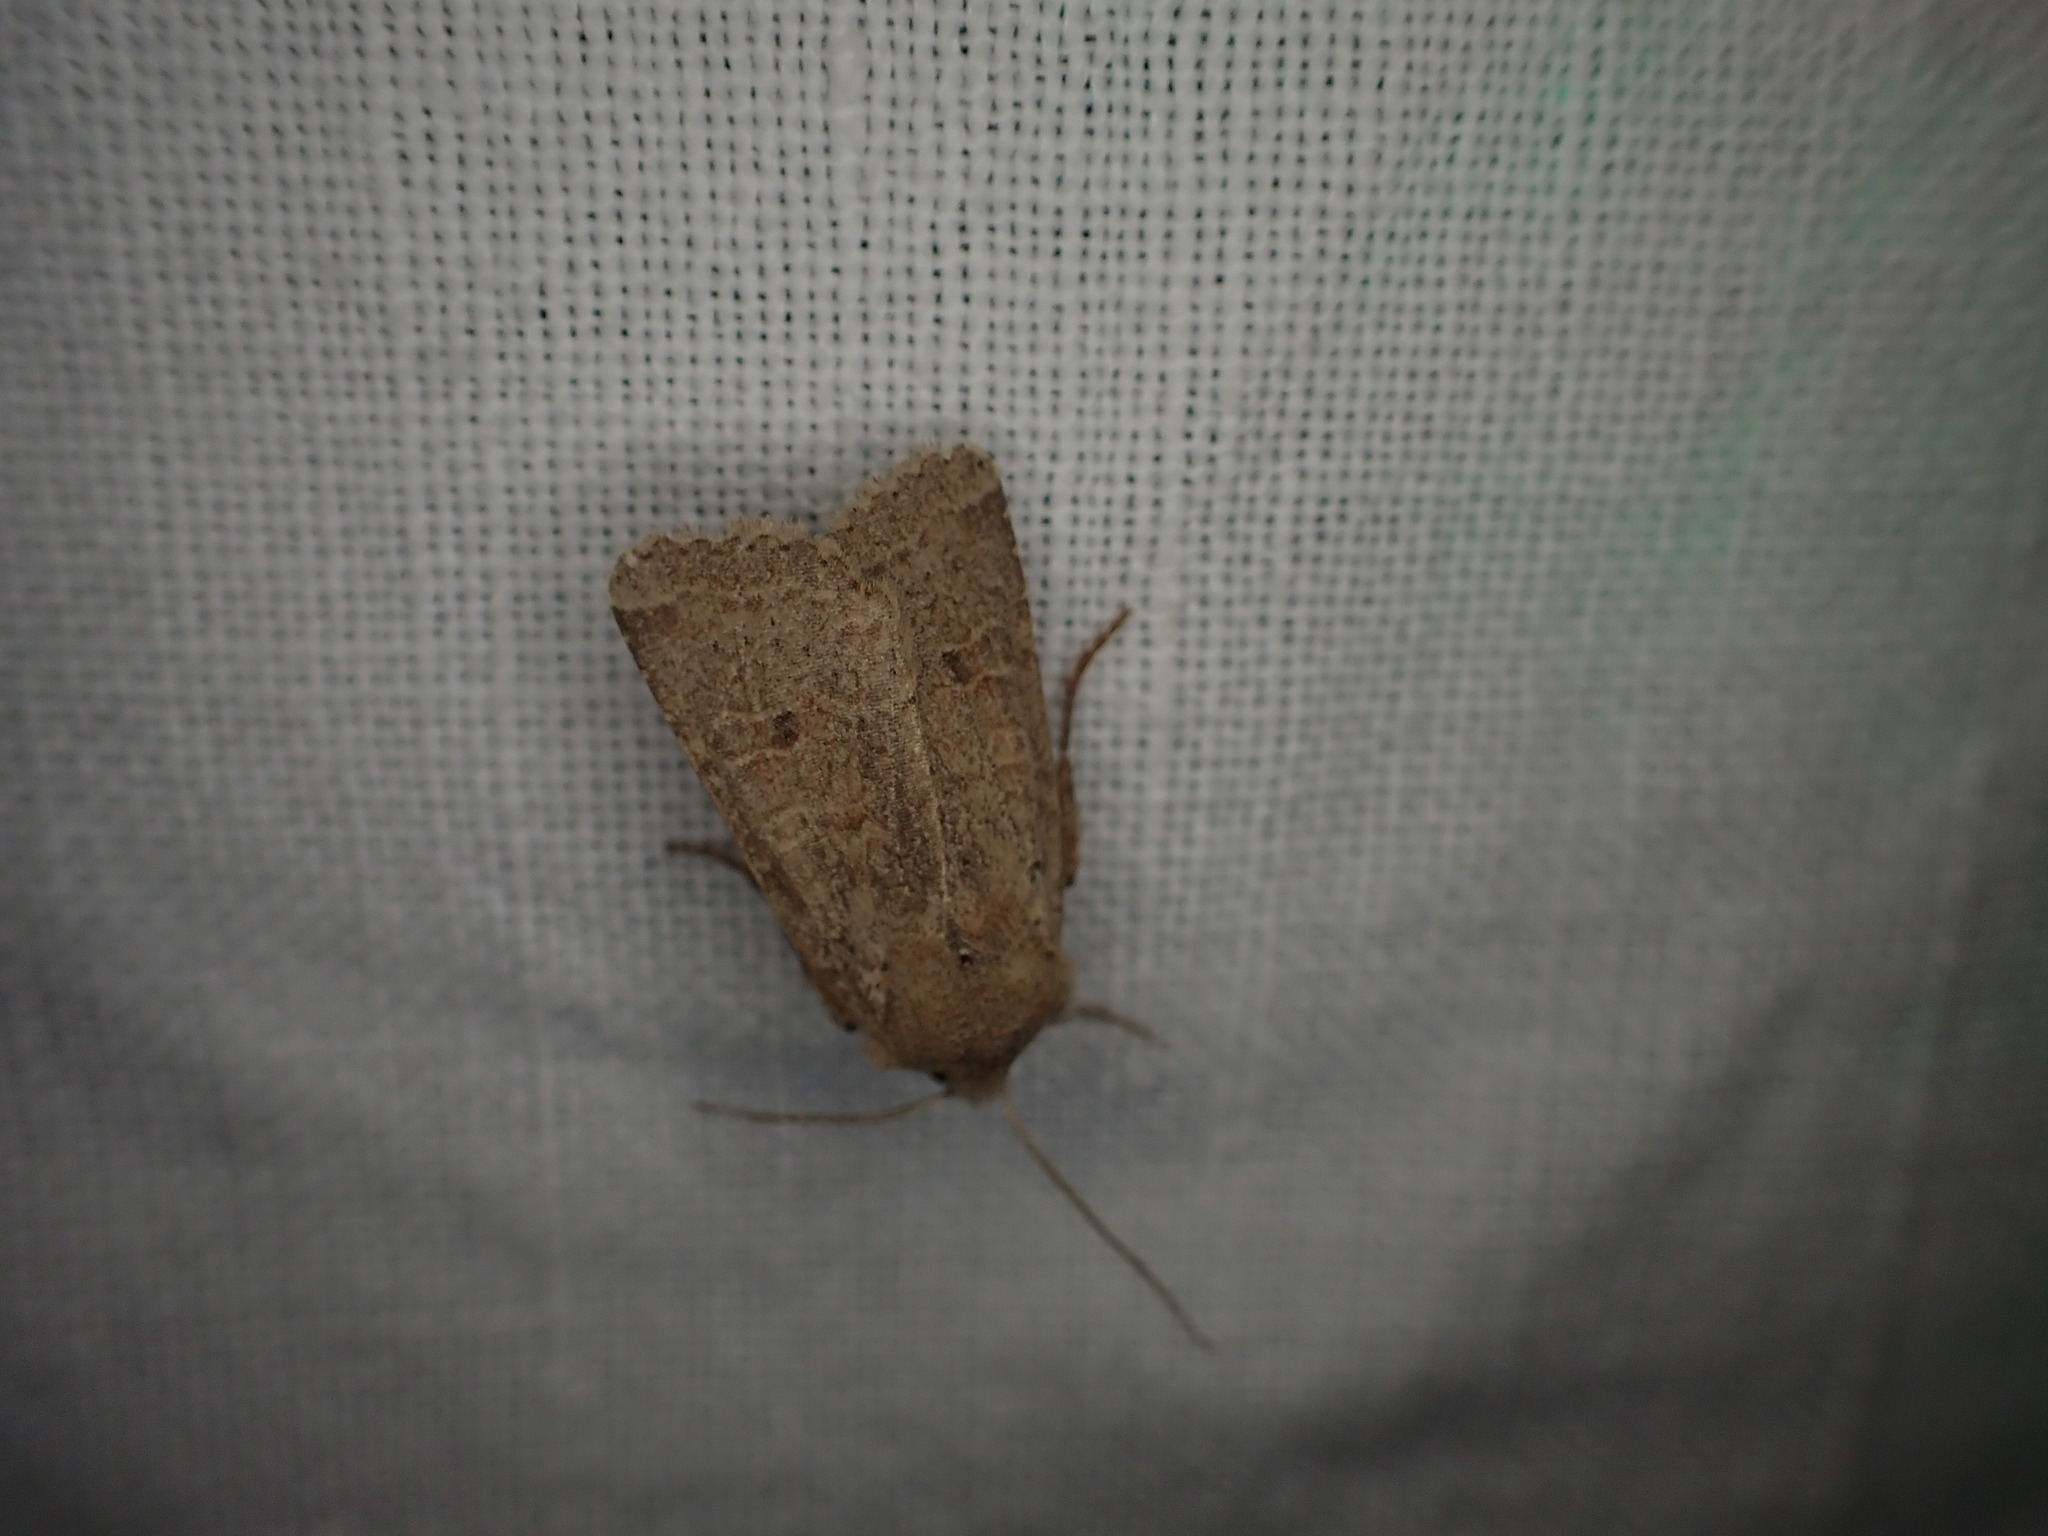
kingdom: Animalia
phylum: Arthropoda
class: Insecta
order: Lepidoptera
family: Noctuidae
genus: Agrochola
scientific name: Agrochola ruticilla
